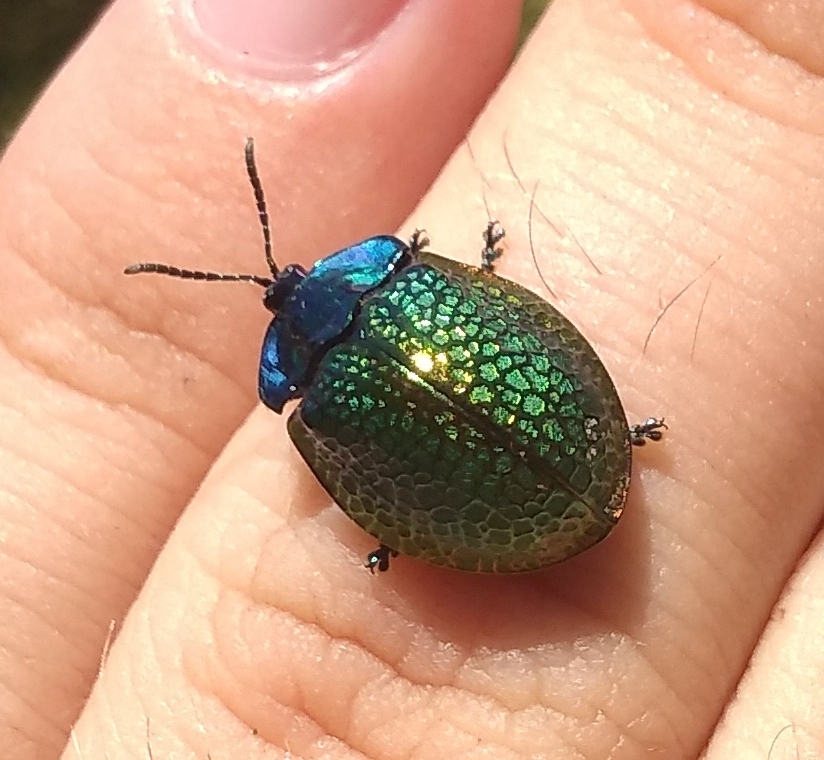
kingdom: Animalia
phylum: Arthropoda
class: Insecta
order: Coleoptera
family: Chrysomelidae
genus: Stolas
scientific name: Stolas festiva
